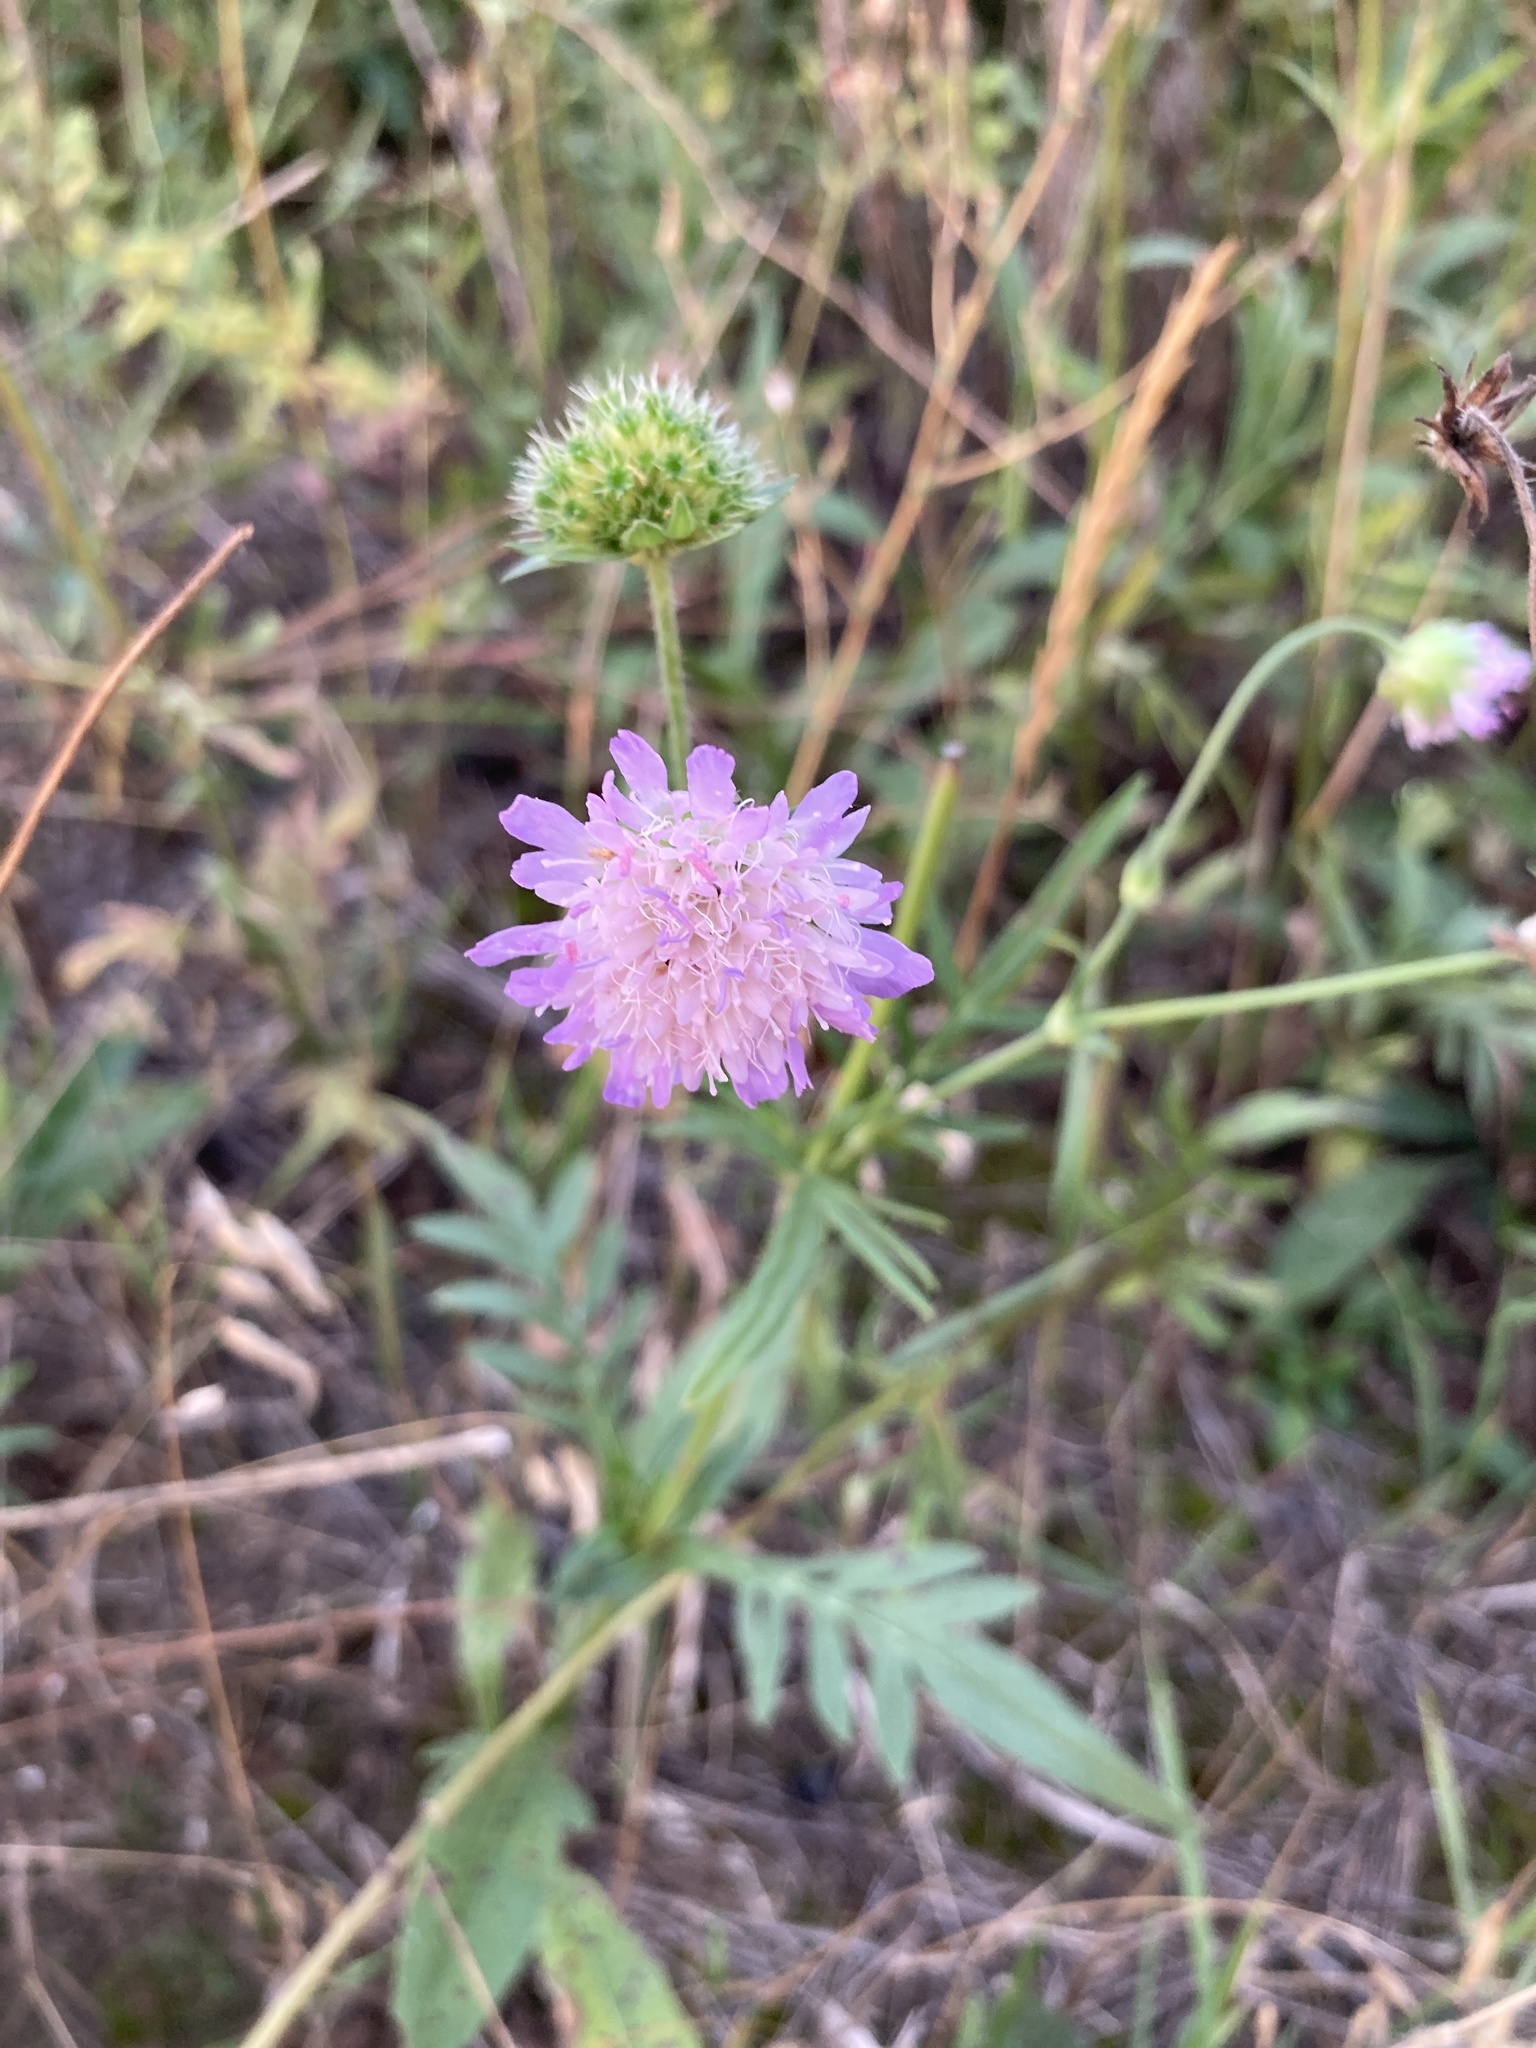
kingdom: Plantae
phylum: Tracheophyta
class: Magnoliopsida
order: Dipsacales
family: Caprifoliaceae
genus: Knautia
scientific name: Knautia arvensis
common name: Field scabiosa
